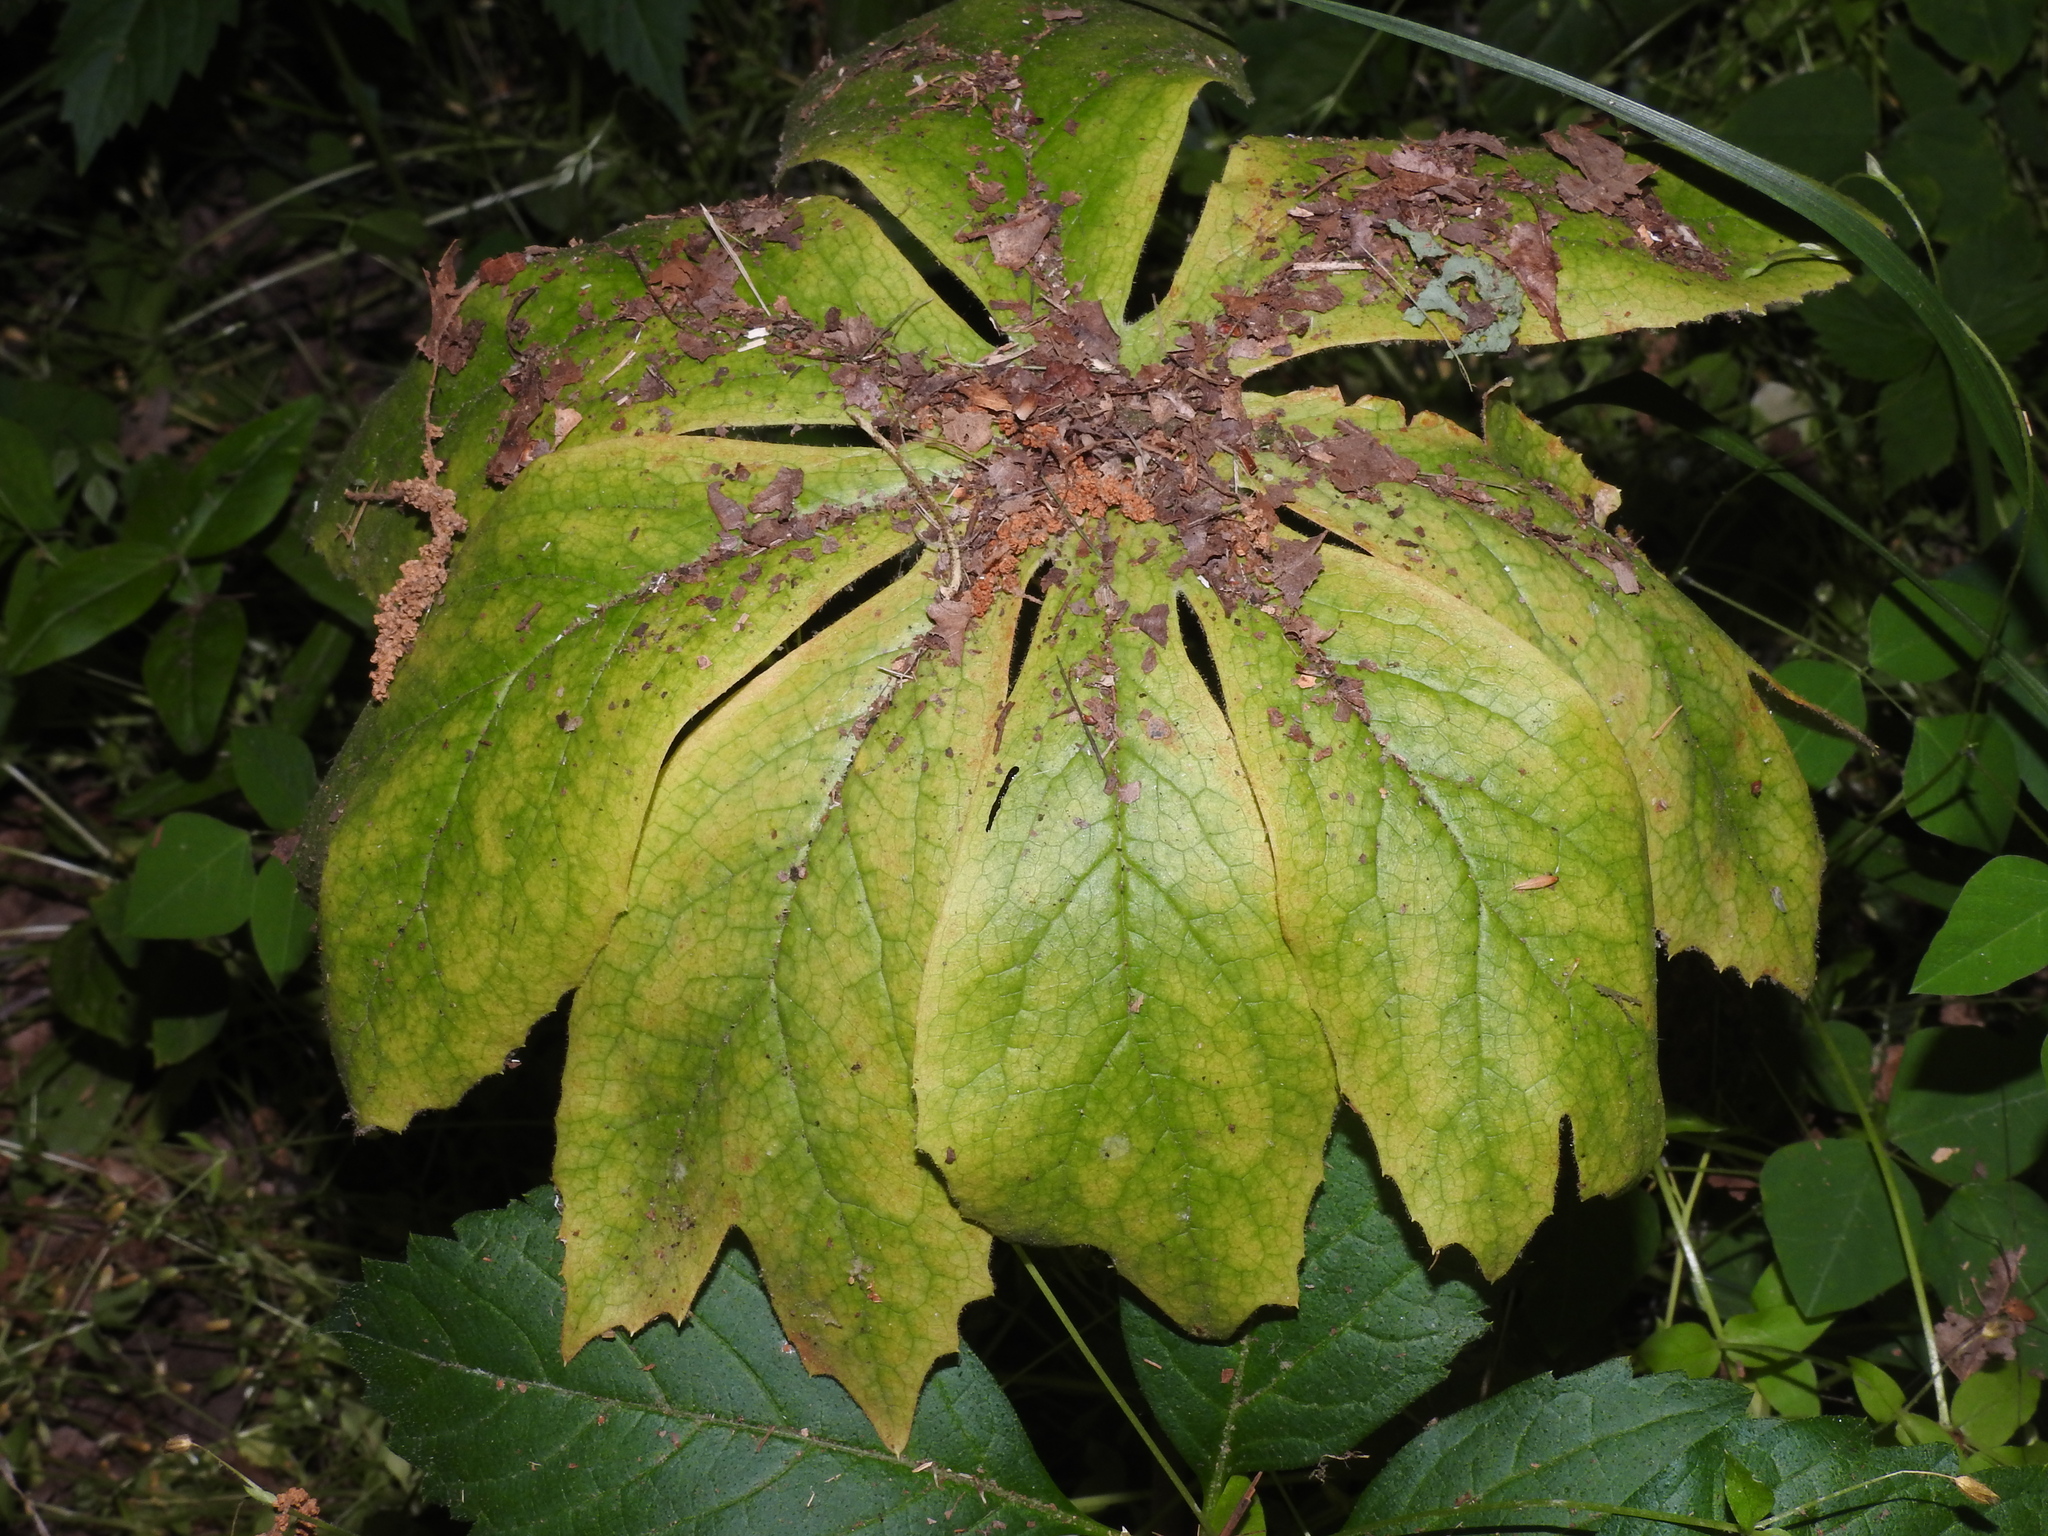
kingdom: Plantae
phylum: Tracheophyta
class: Magnoliopsida
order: Ranunculales
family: Berberidaceae
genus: Podophyllum
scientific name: Podophyllum peltatum
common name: Wild mandrake
